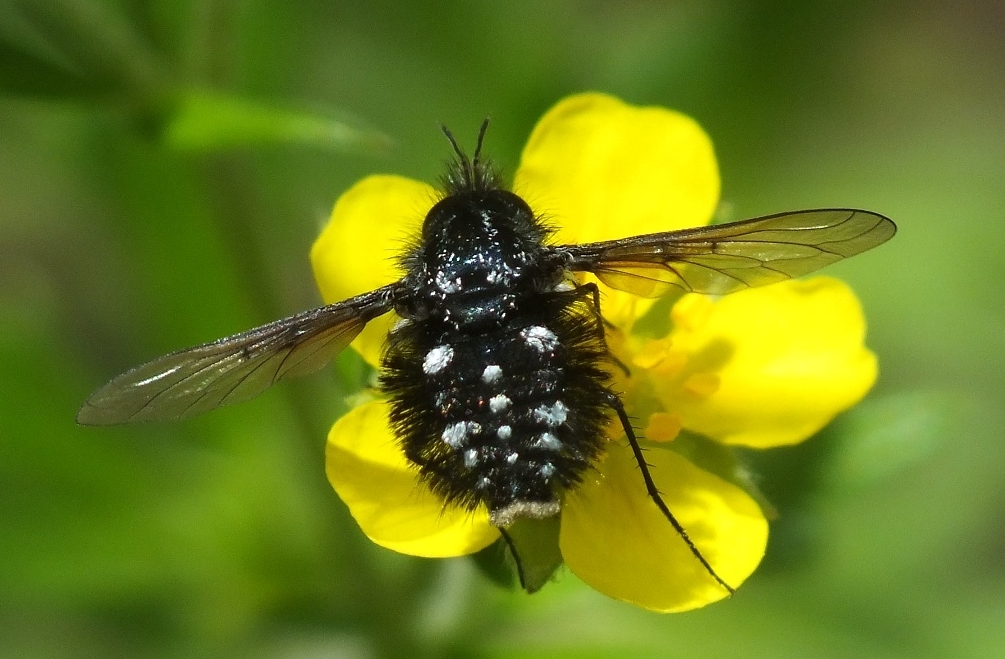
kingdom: Animalia
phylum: Arthropoda
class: Insecta
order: Diptera
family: Bombyliidae
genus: Bombylella
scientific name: Bombylella atra
